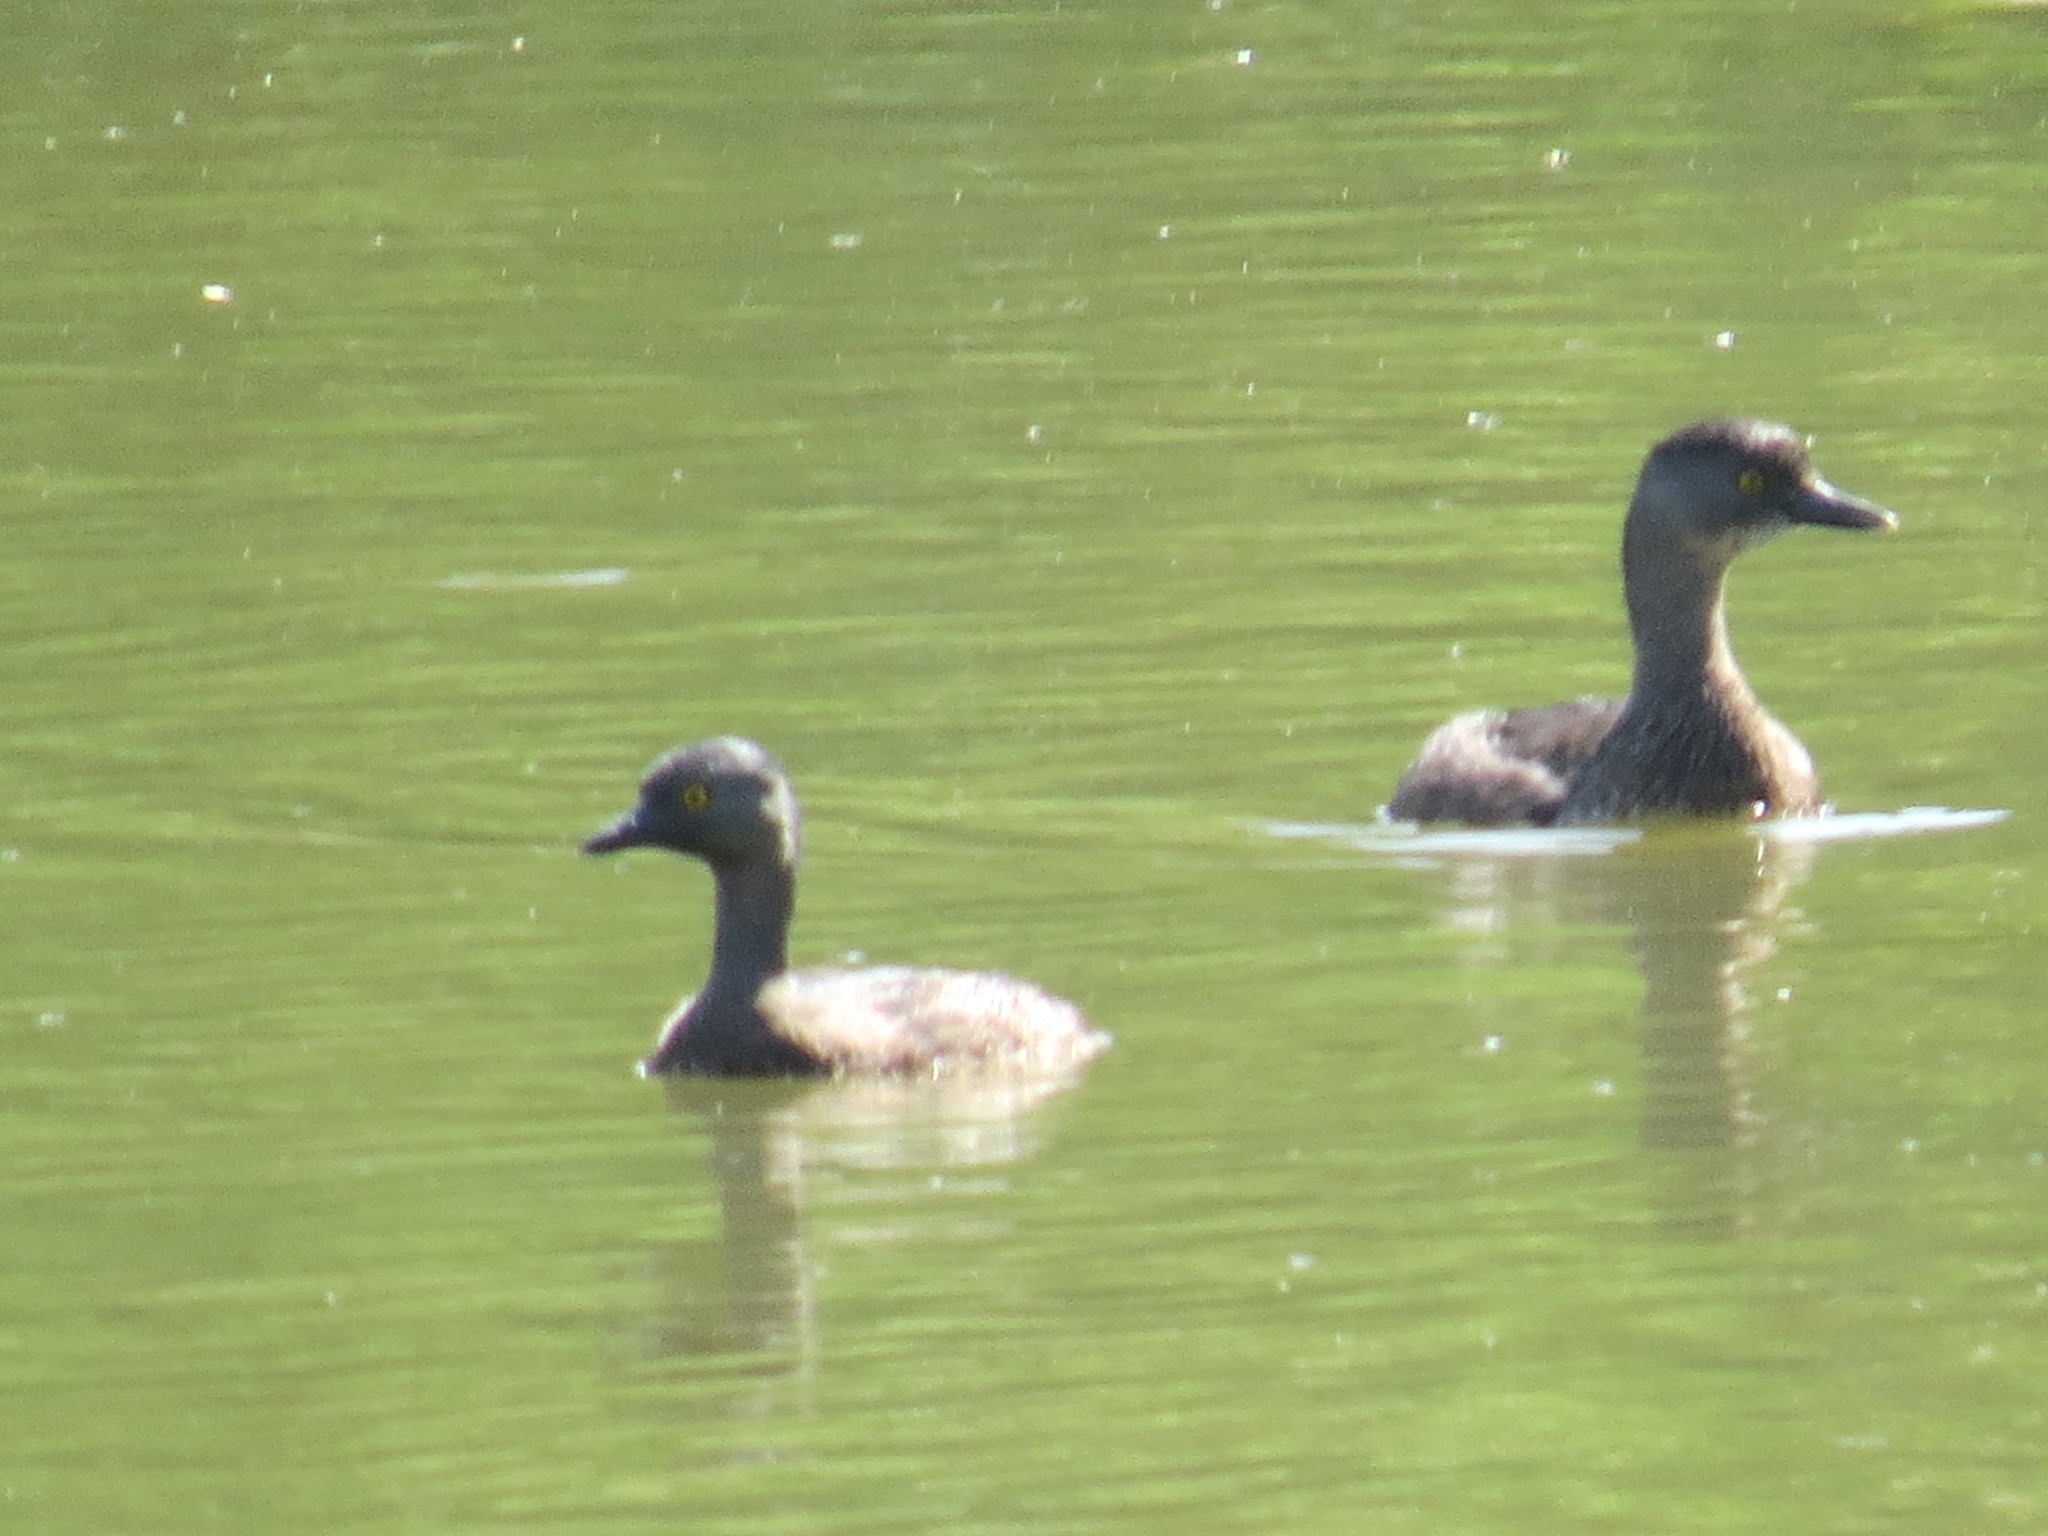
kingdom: Animalia
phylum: Chordata
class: Aves
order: Podicipediformes
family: Podicipedidae
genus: Tachybaptus
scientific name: Tachybaptus dominicus
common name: Least grebe
